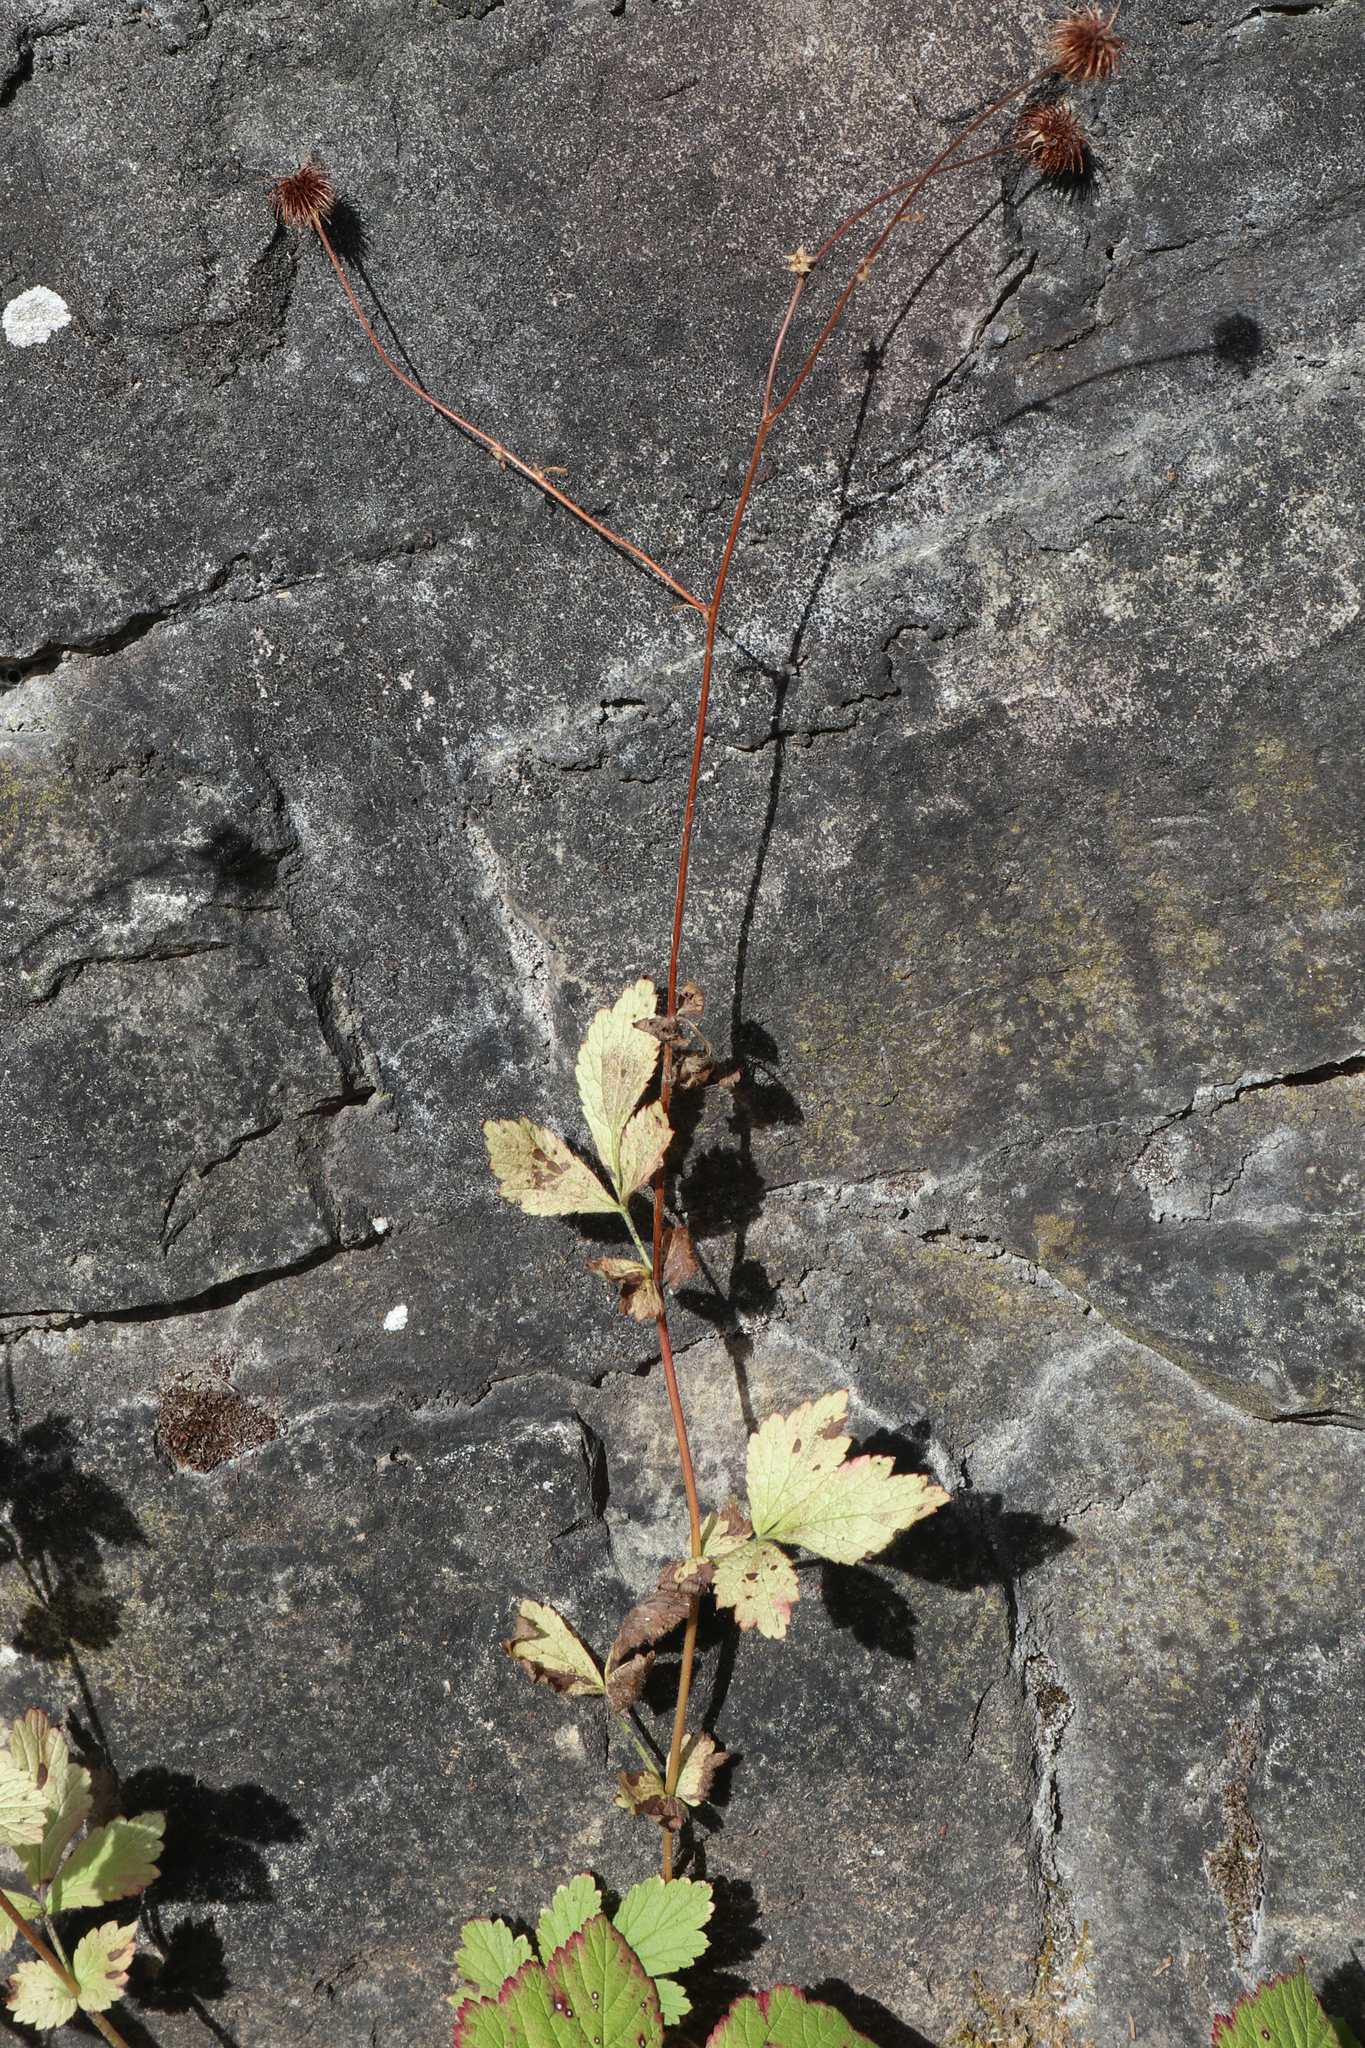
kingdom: Plantae
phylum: Tracheophyta
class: Magnoliopsida
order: Rosales
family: Rosaceae
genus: Geum
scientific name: Geum urbanum
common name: Wood avens
